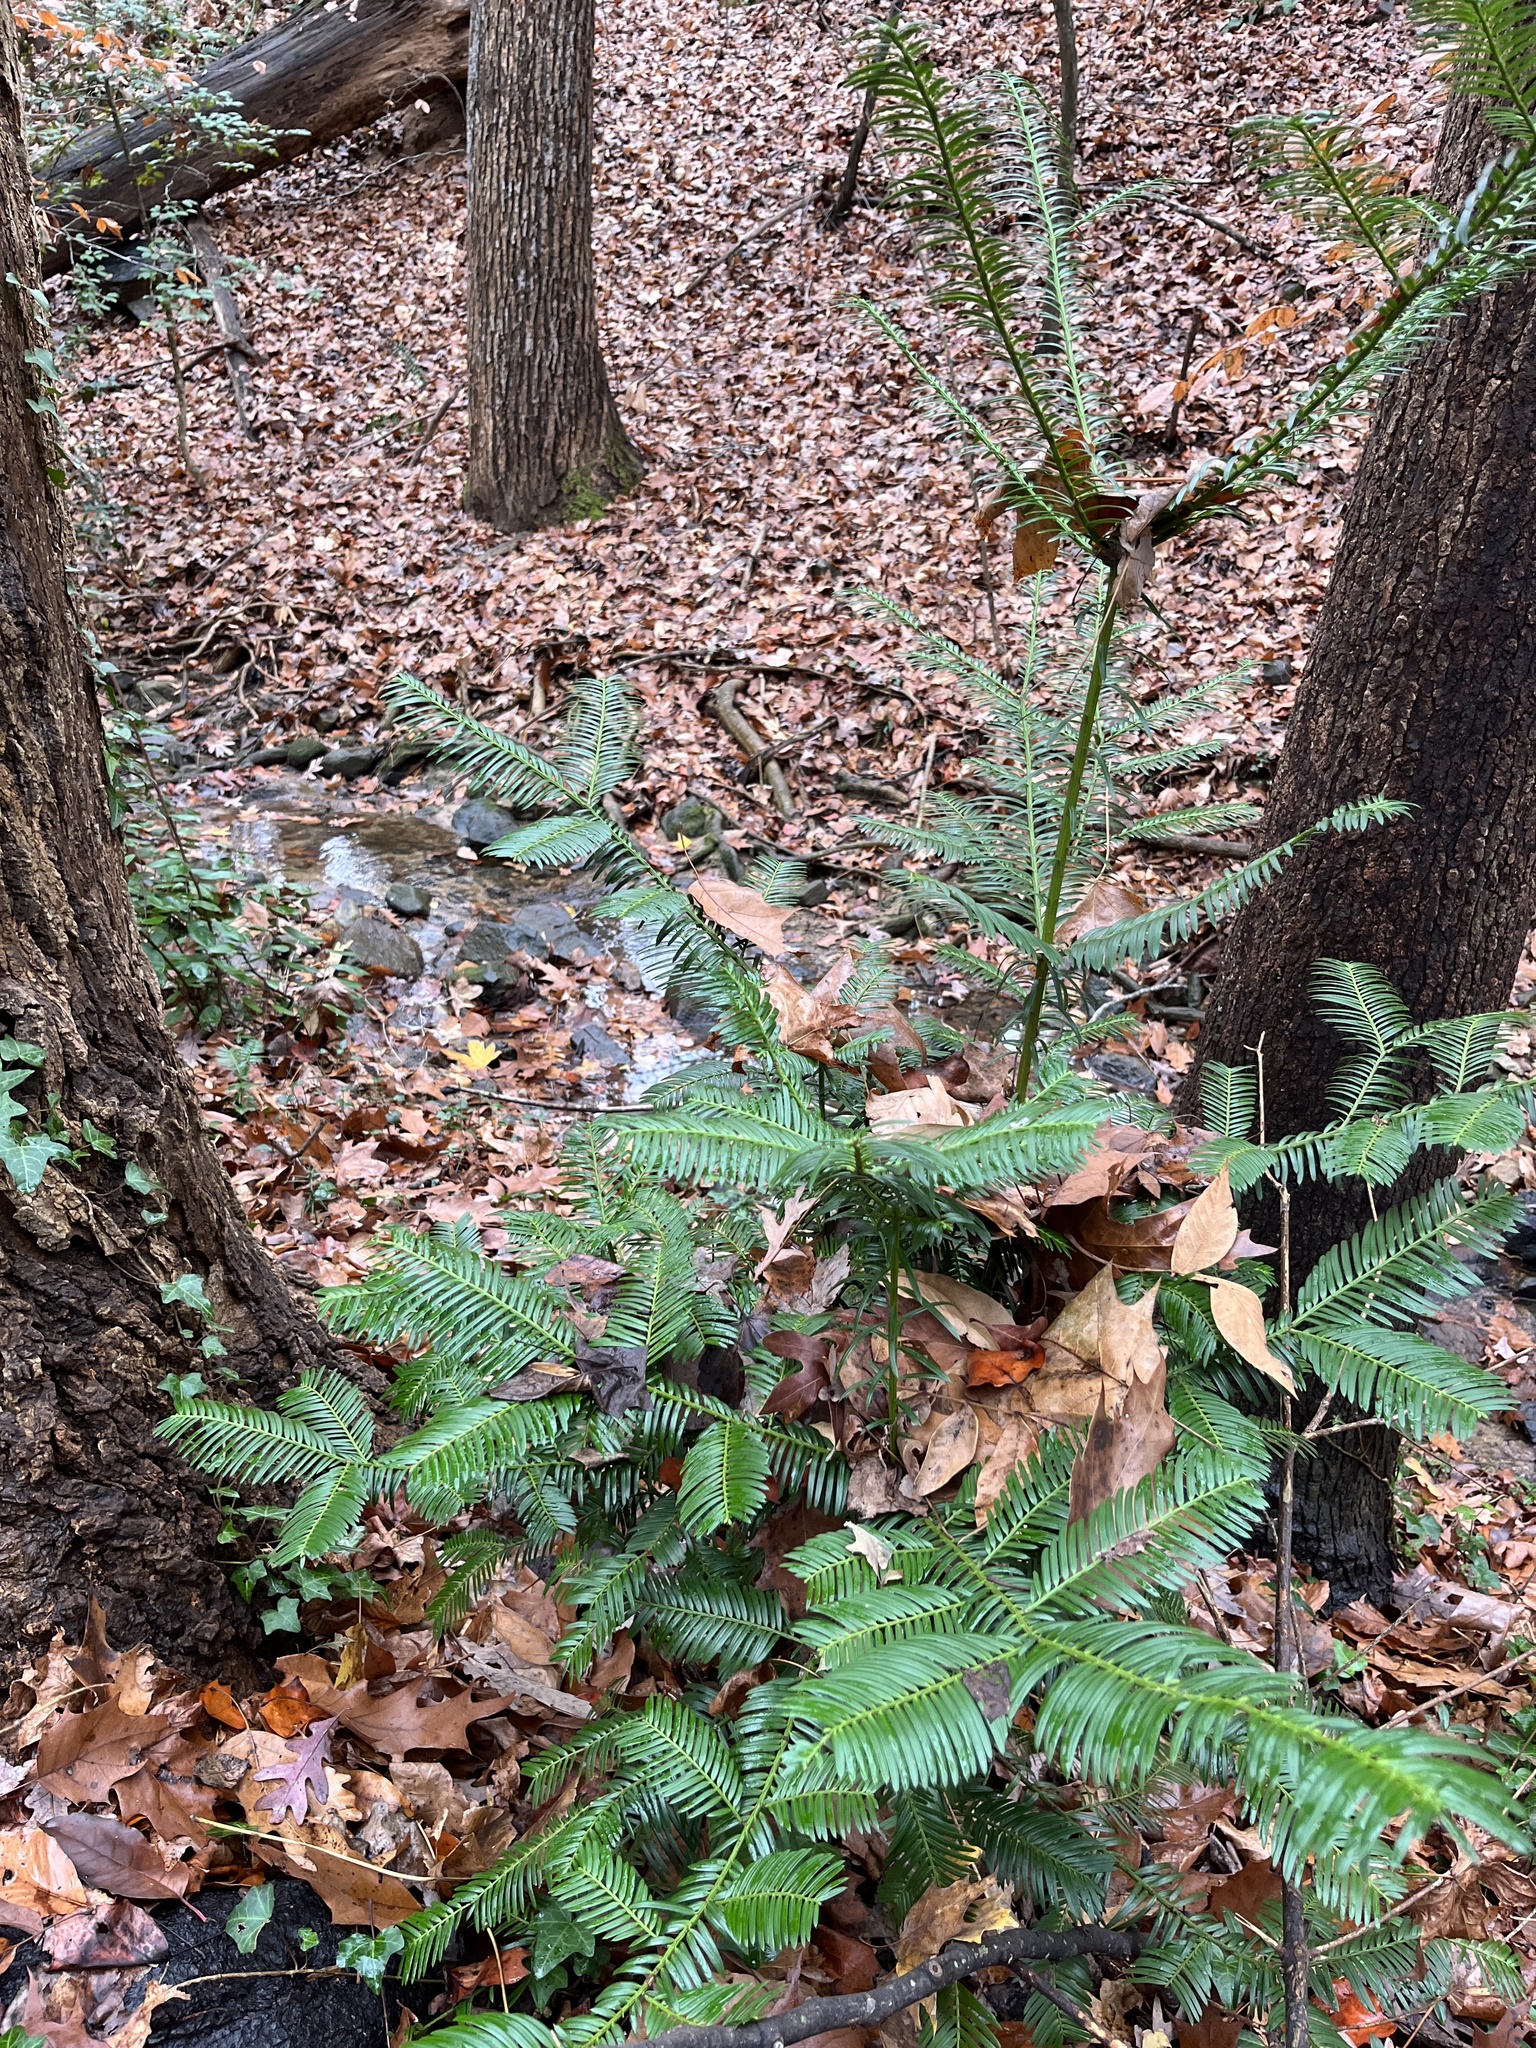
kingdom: Plantae
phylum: Tracheophyta
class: Pinopsida
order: Pinales
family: Cephalotaxaceae
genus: Cephalotaxus
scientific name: Cephalotaxus harringtonia
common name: Japanese plum-yew
